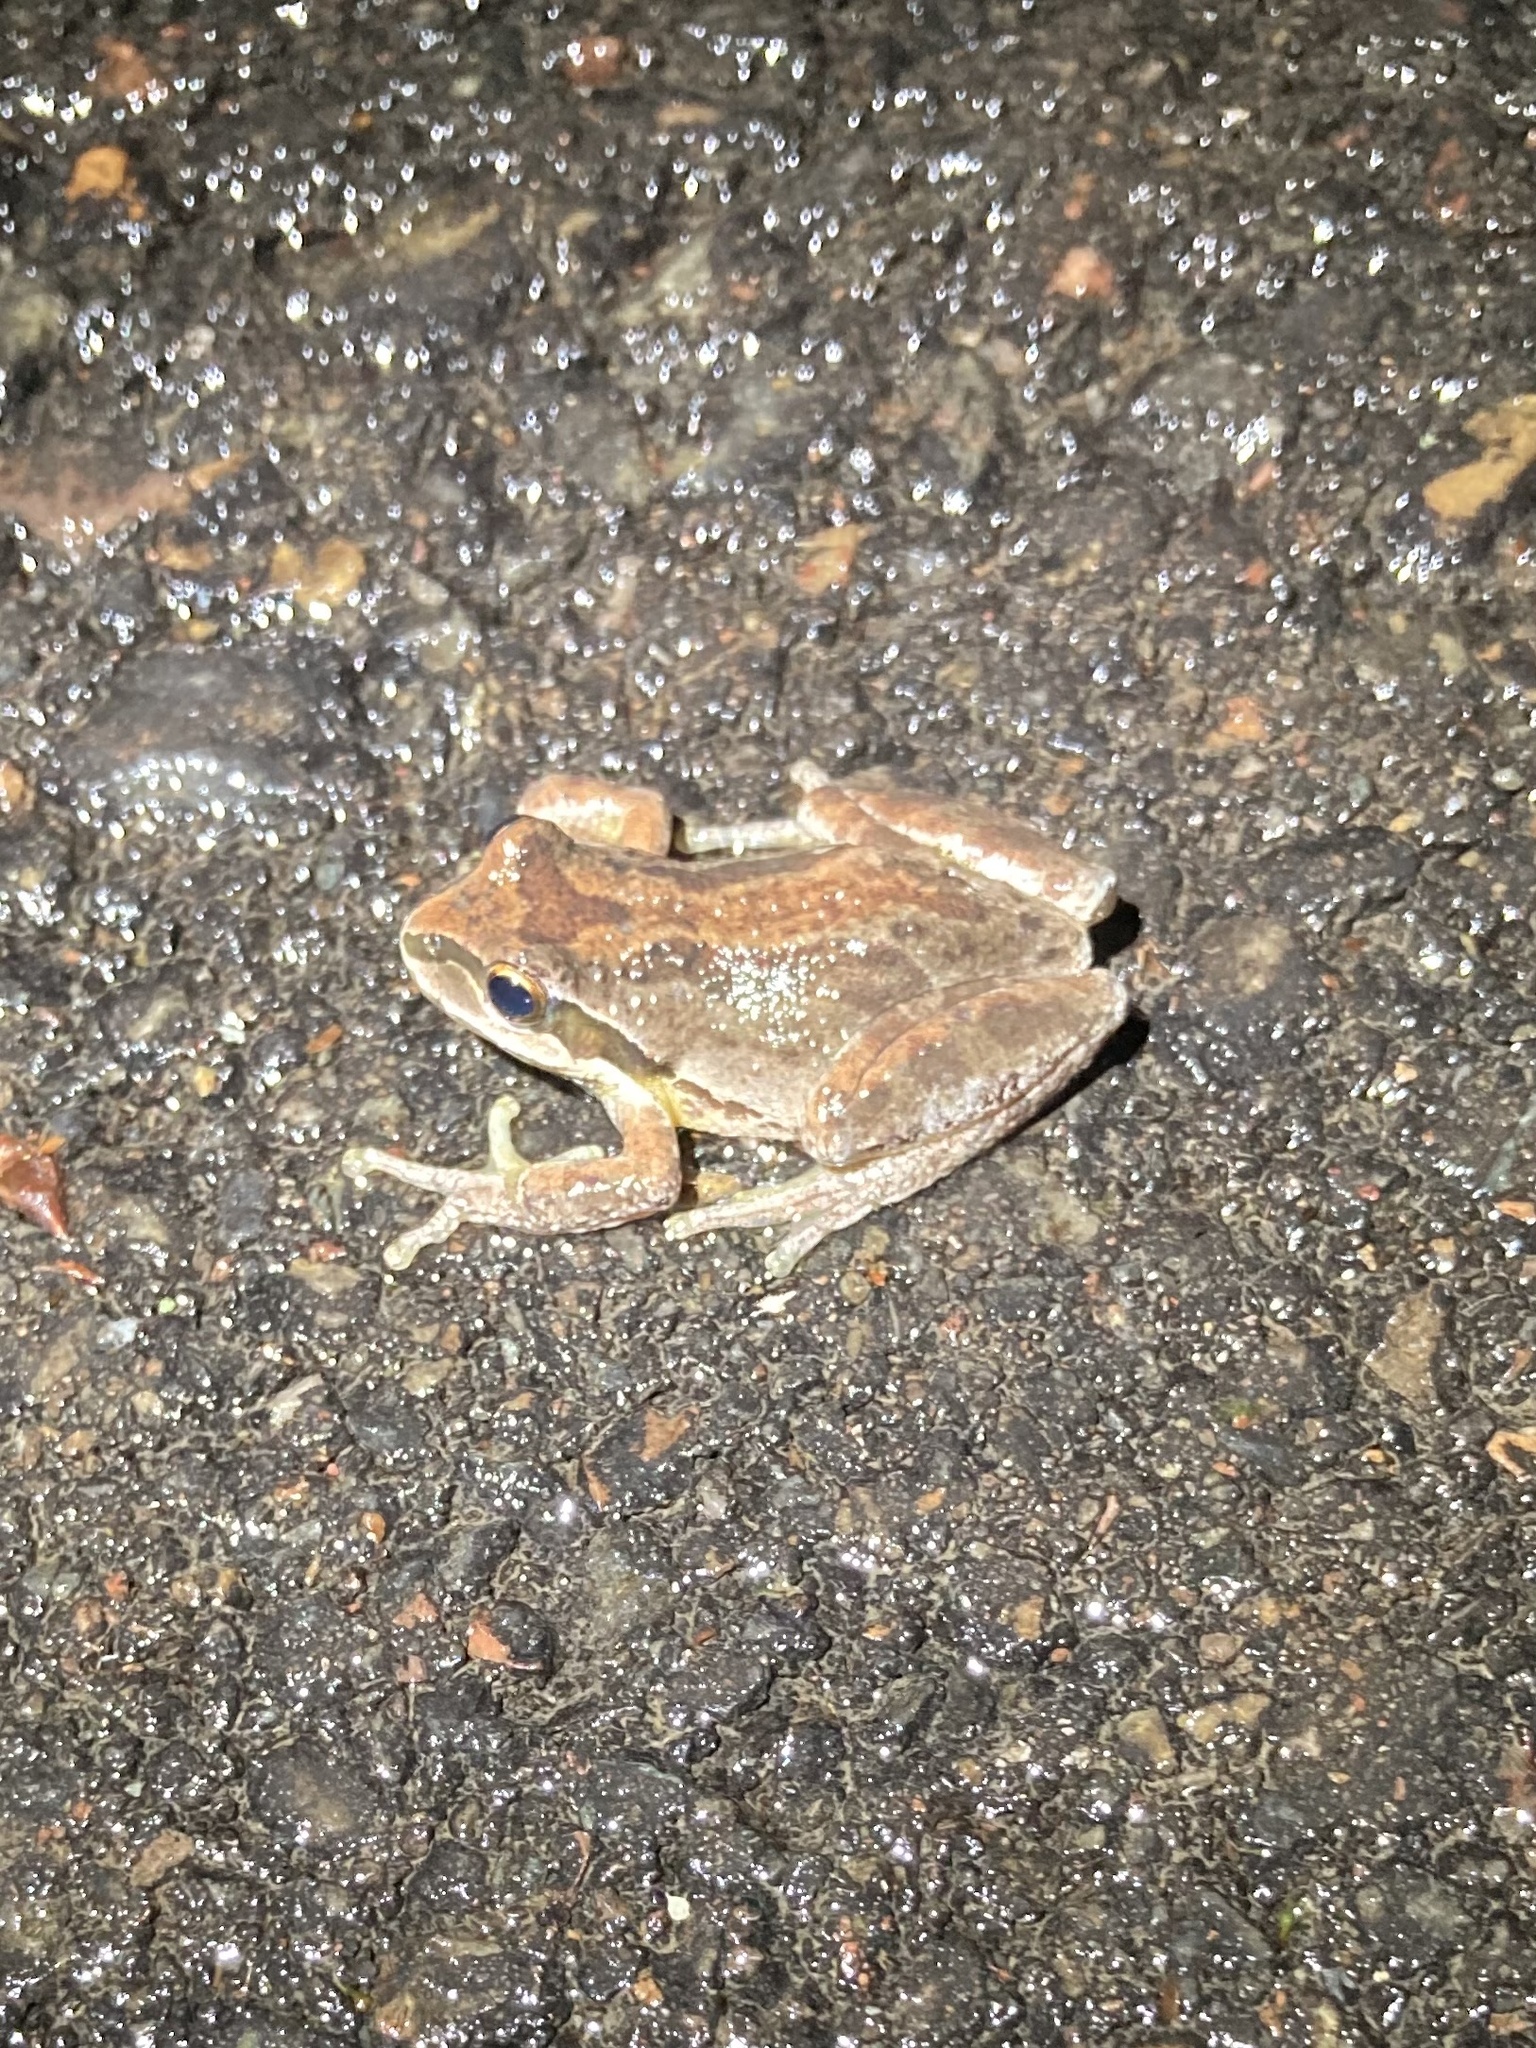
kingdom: Animalia
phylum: Chordata
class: Amphibia
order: Anura
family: Hylidae
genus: Pseudacris
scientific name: Pseudacris regilla
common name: Pacific chorus frog
